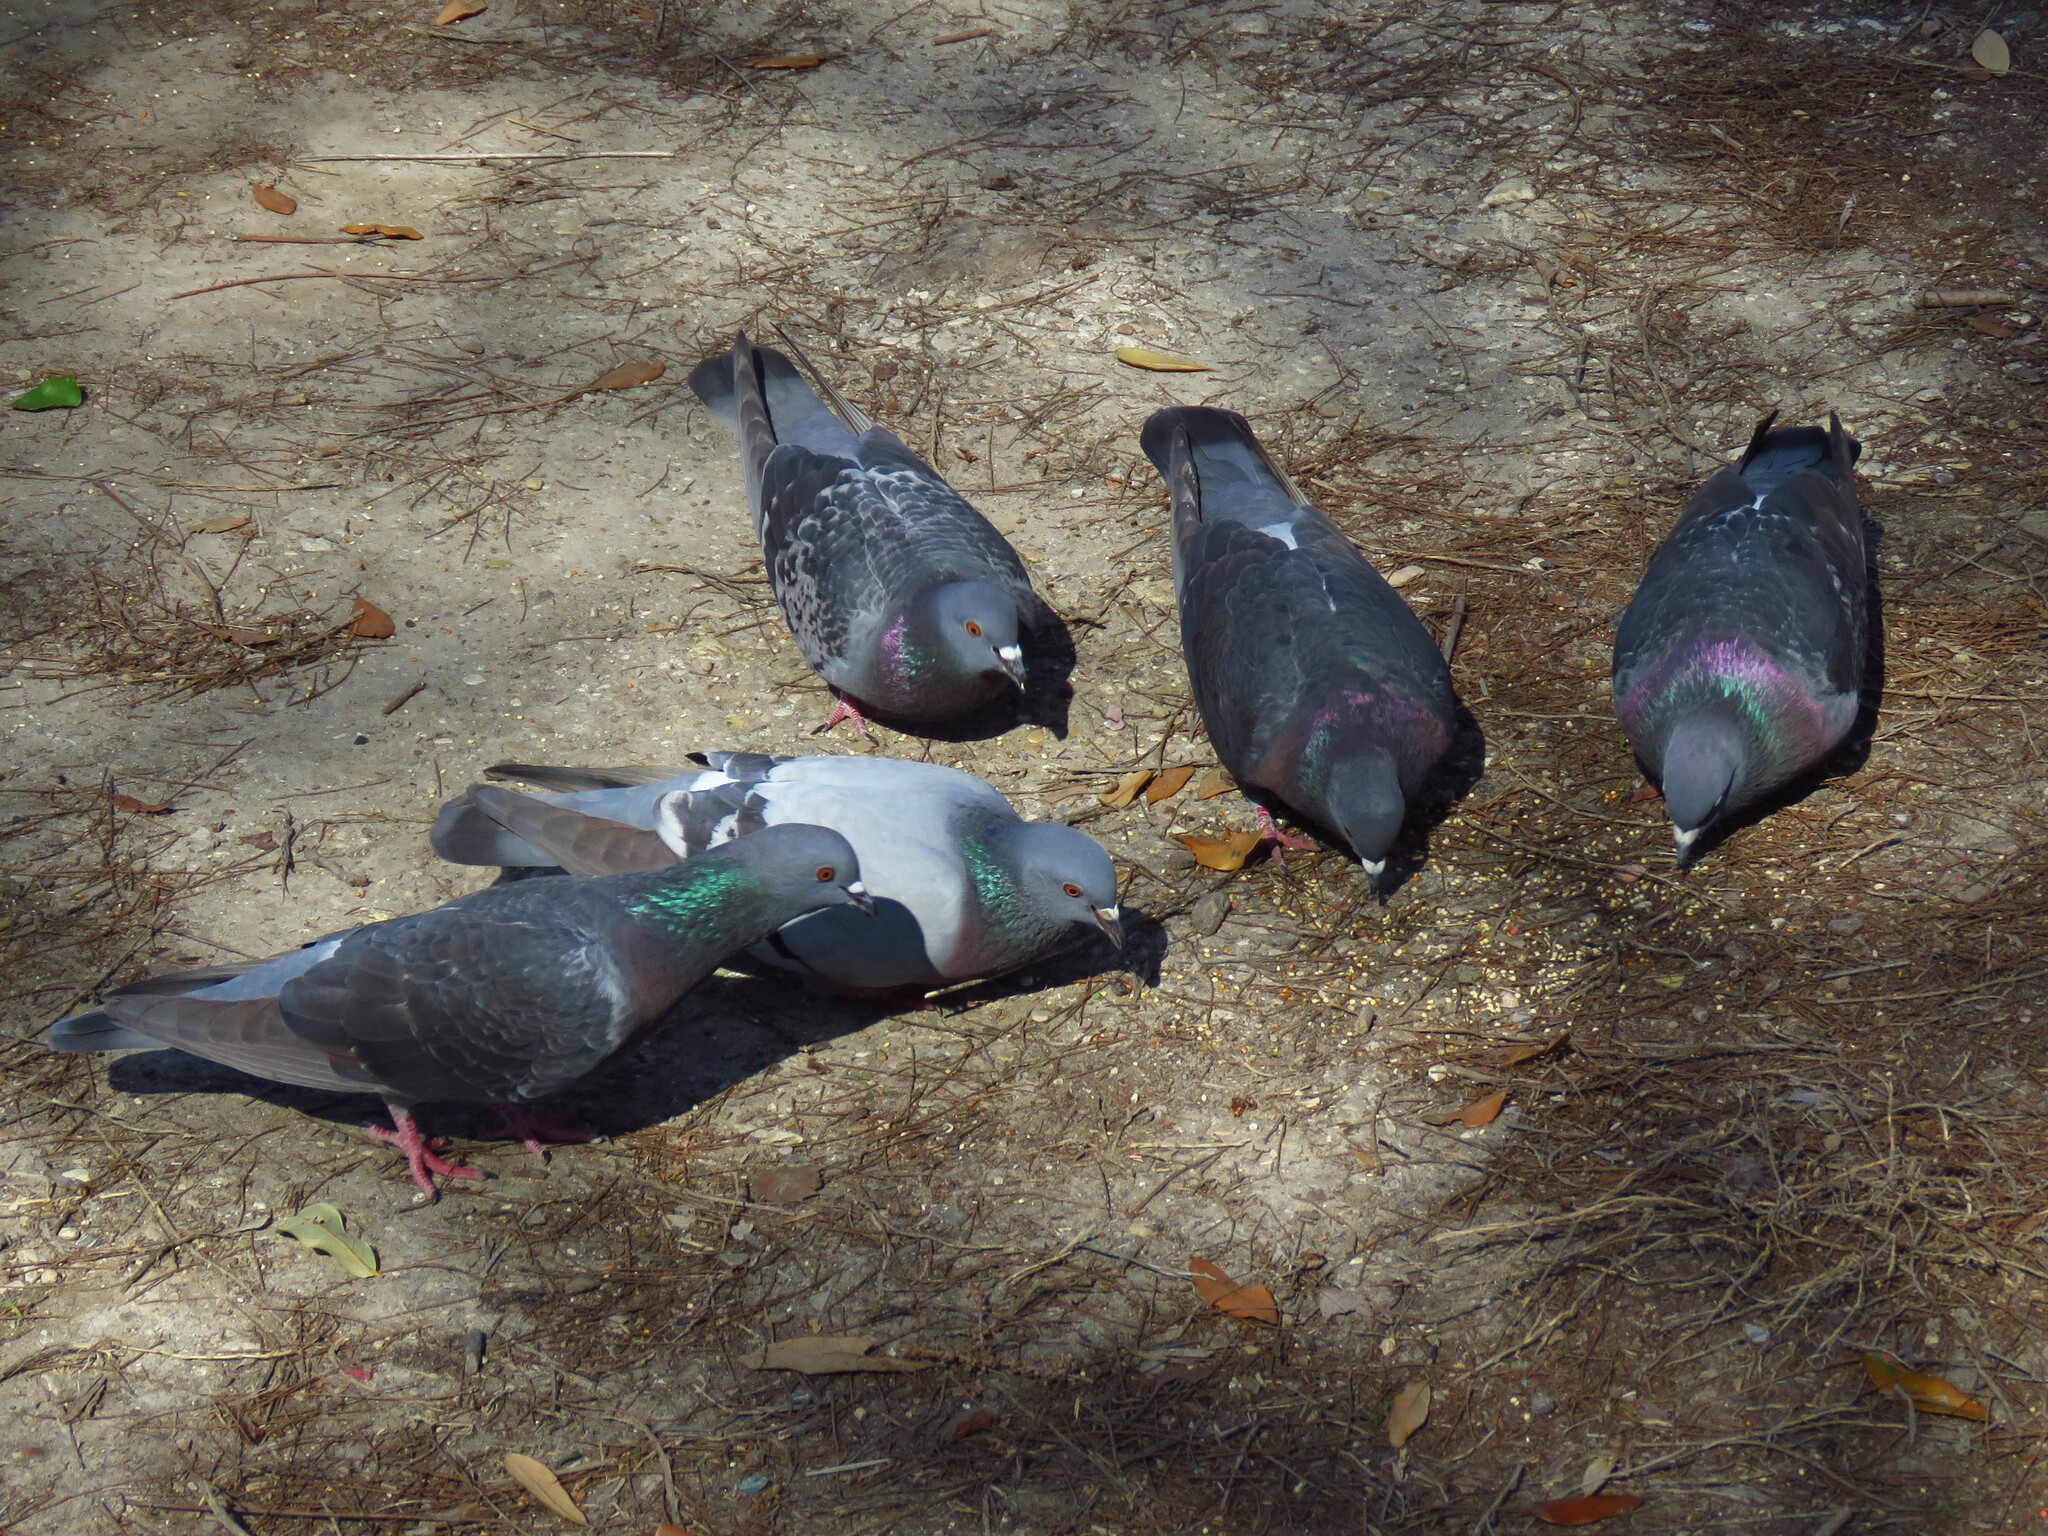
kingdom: Animalia
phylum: Chordata
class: Aves
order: Columbiformes
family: Columbidae
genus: Columba
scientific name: Columba livia
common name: Rock pigeon
